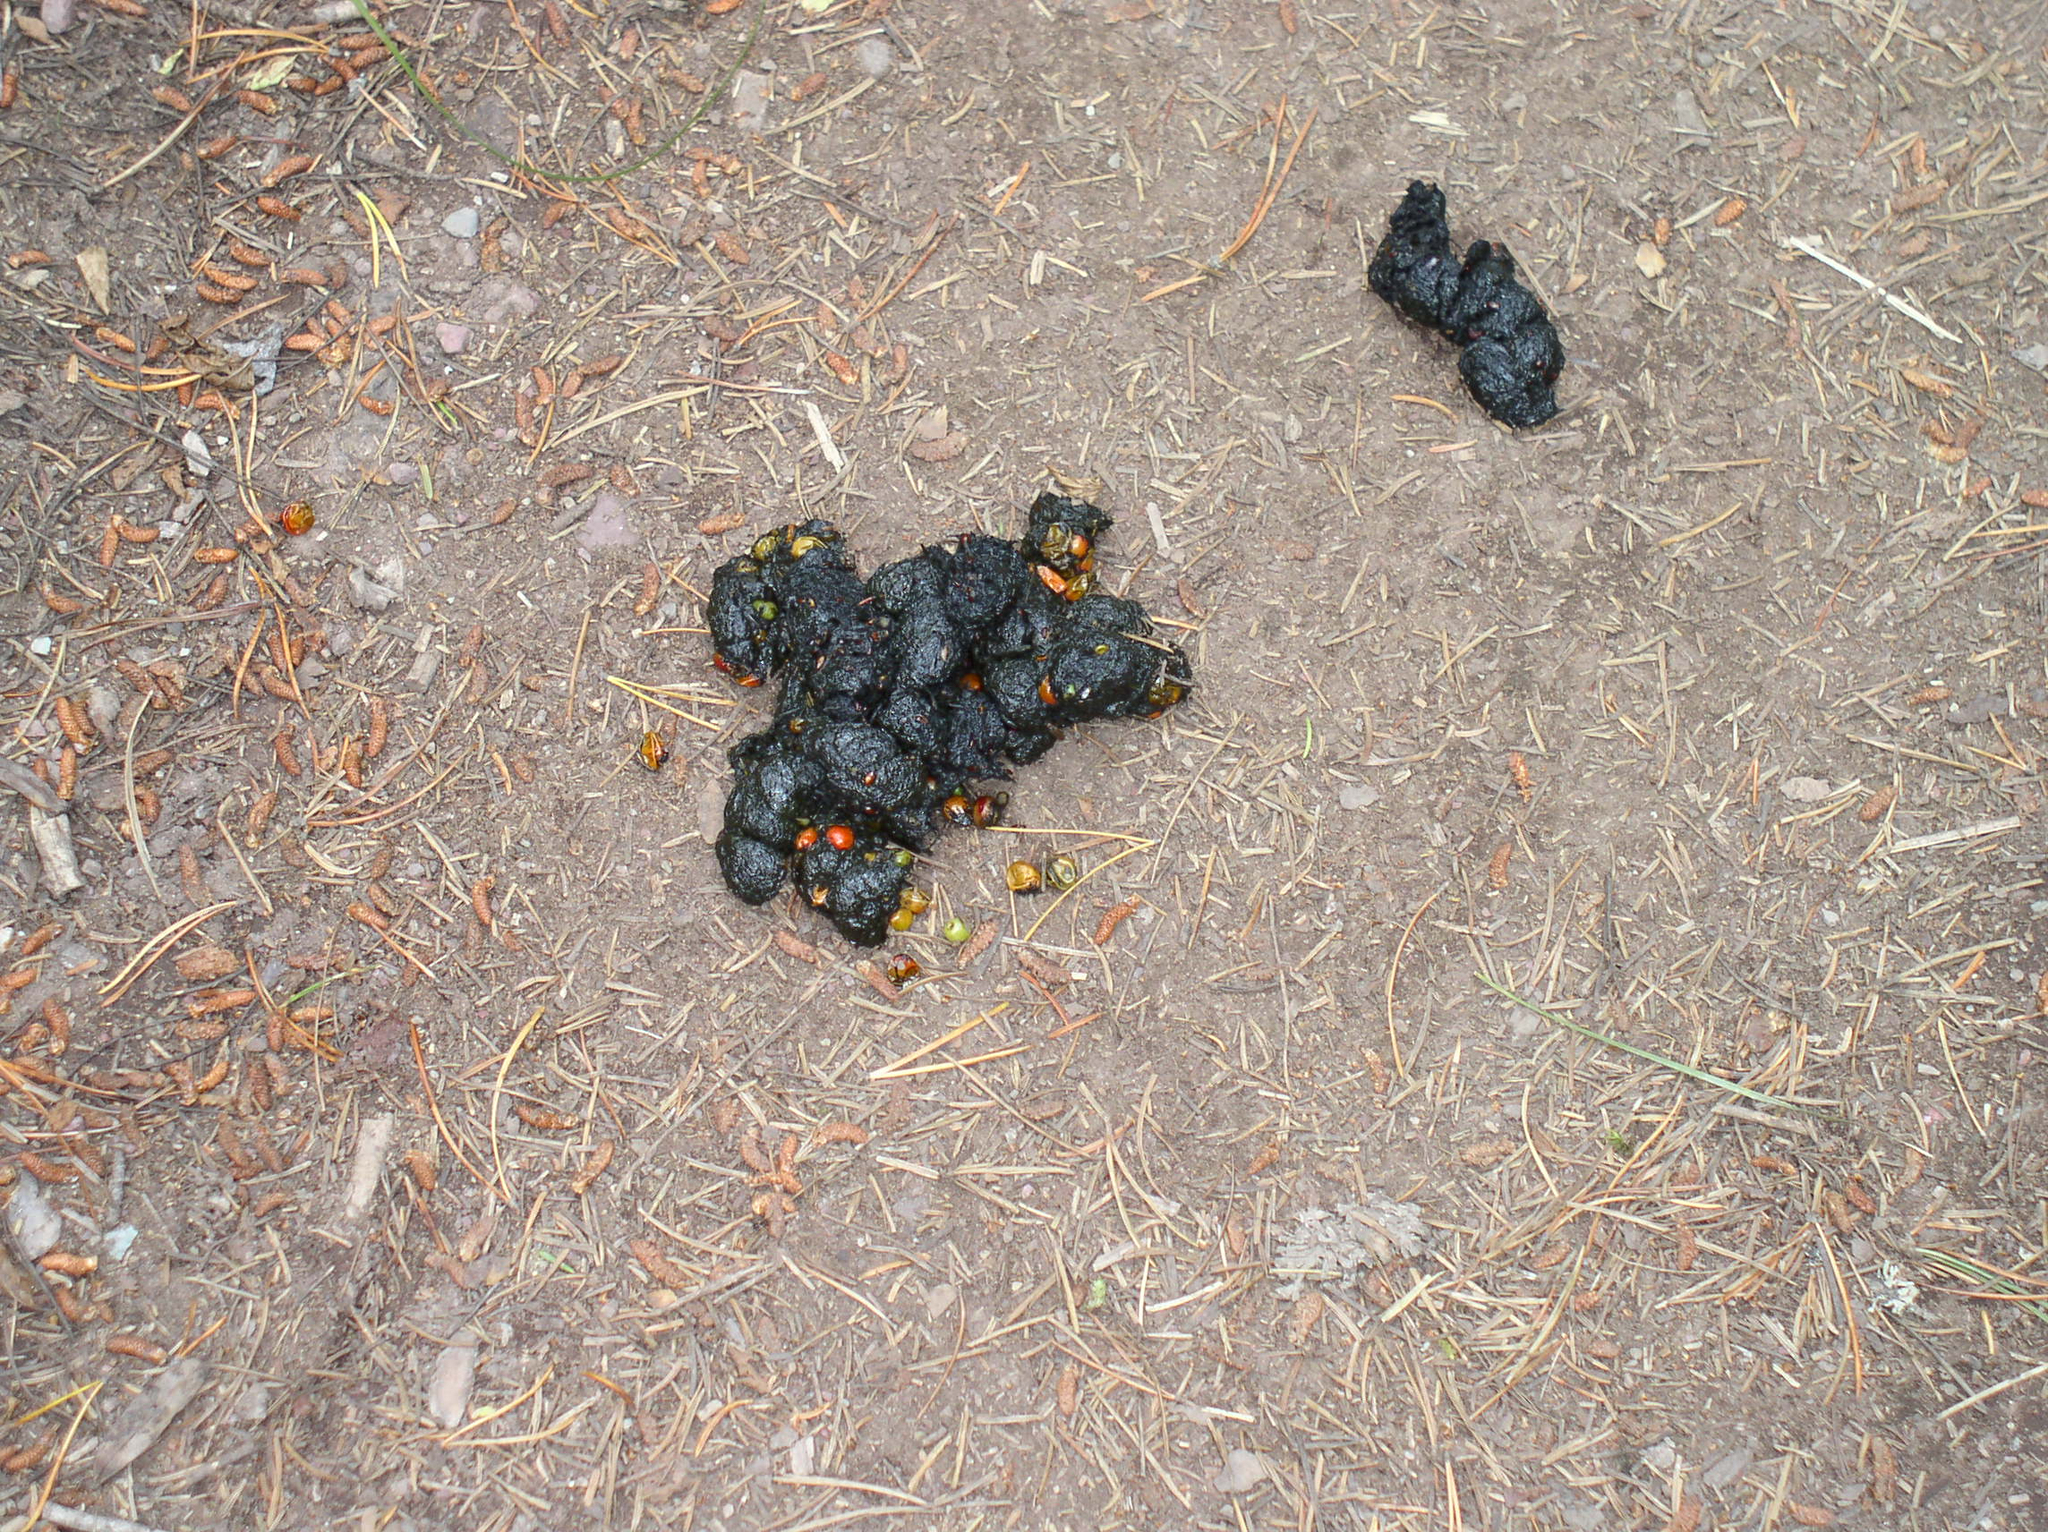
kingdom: Animalia
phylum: Chordata
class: Mammalia
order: Carnivora
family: Ursidae
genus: Ursus
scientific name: Ursus americanus
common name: American black bear
